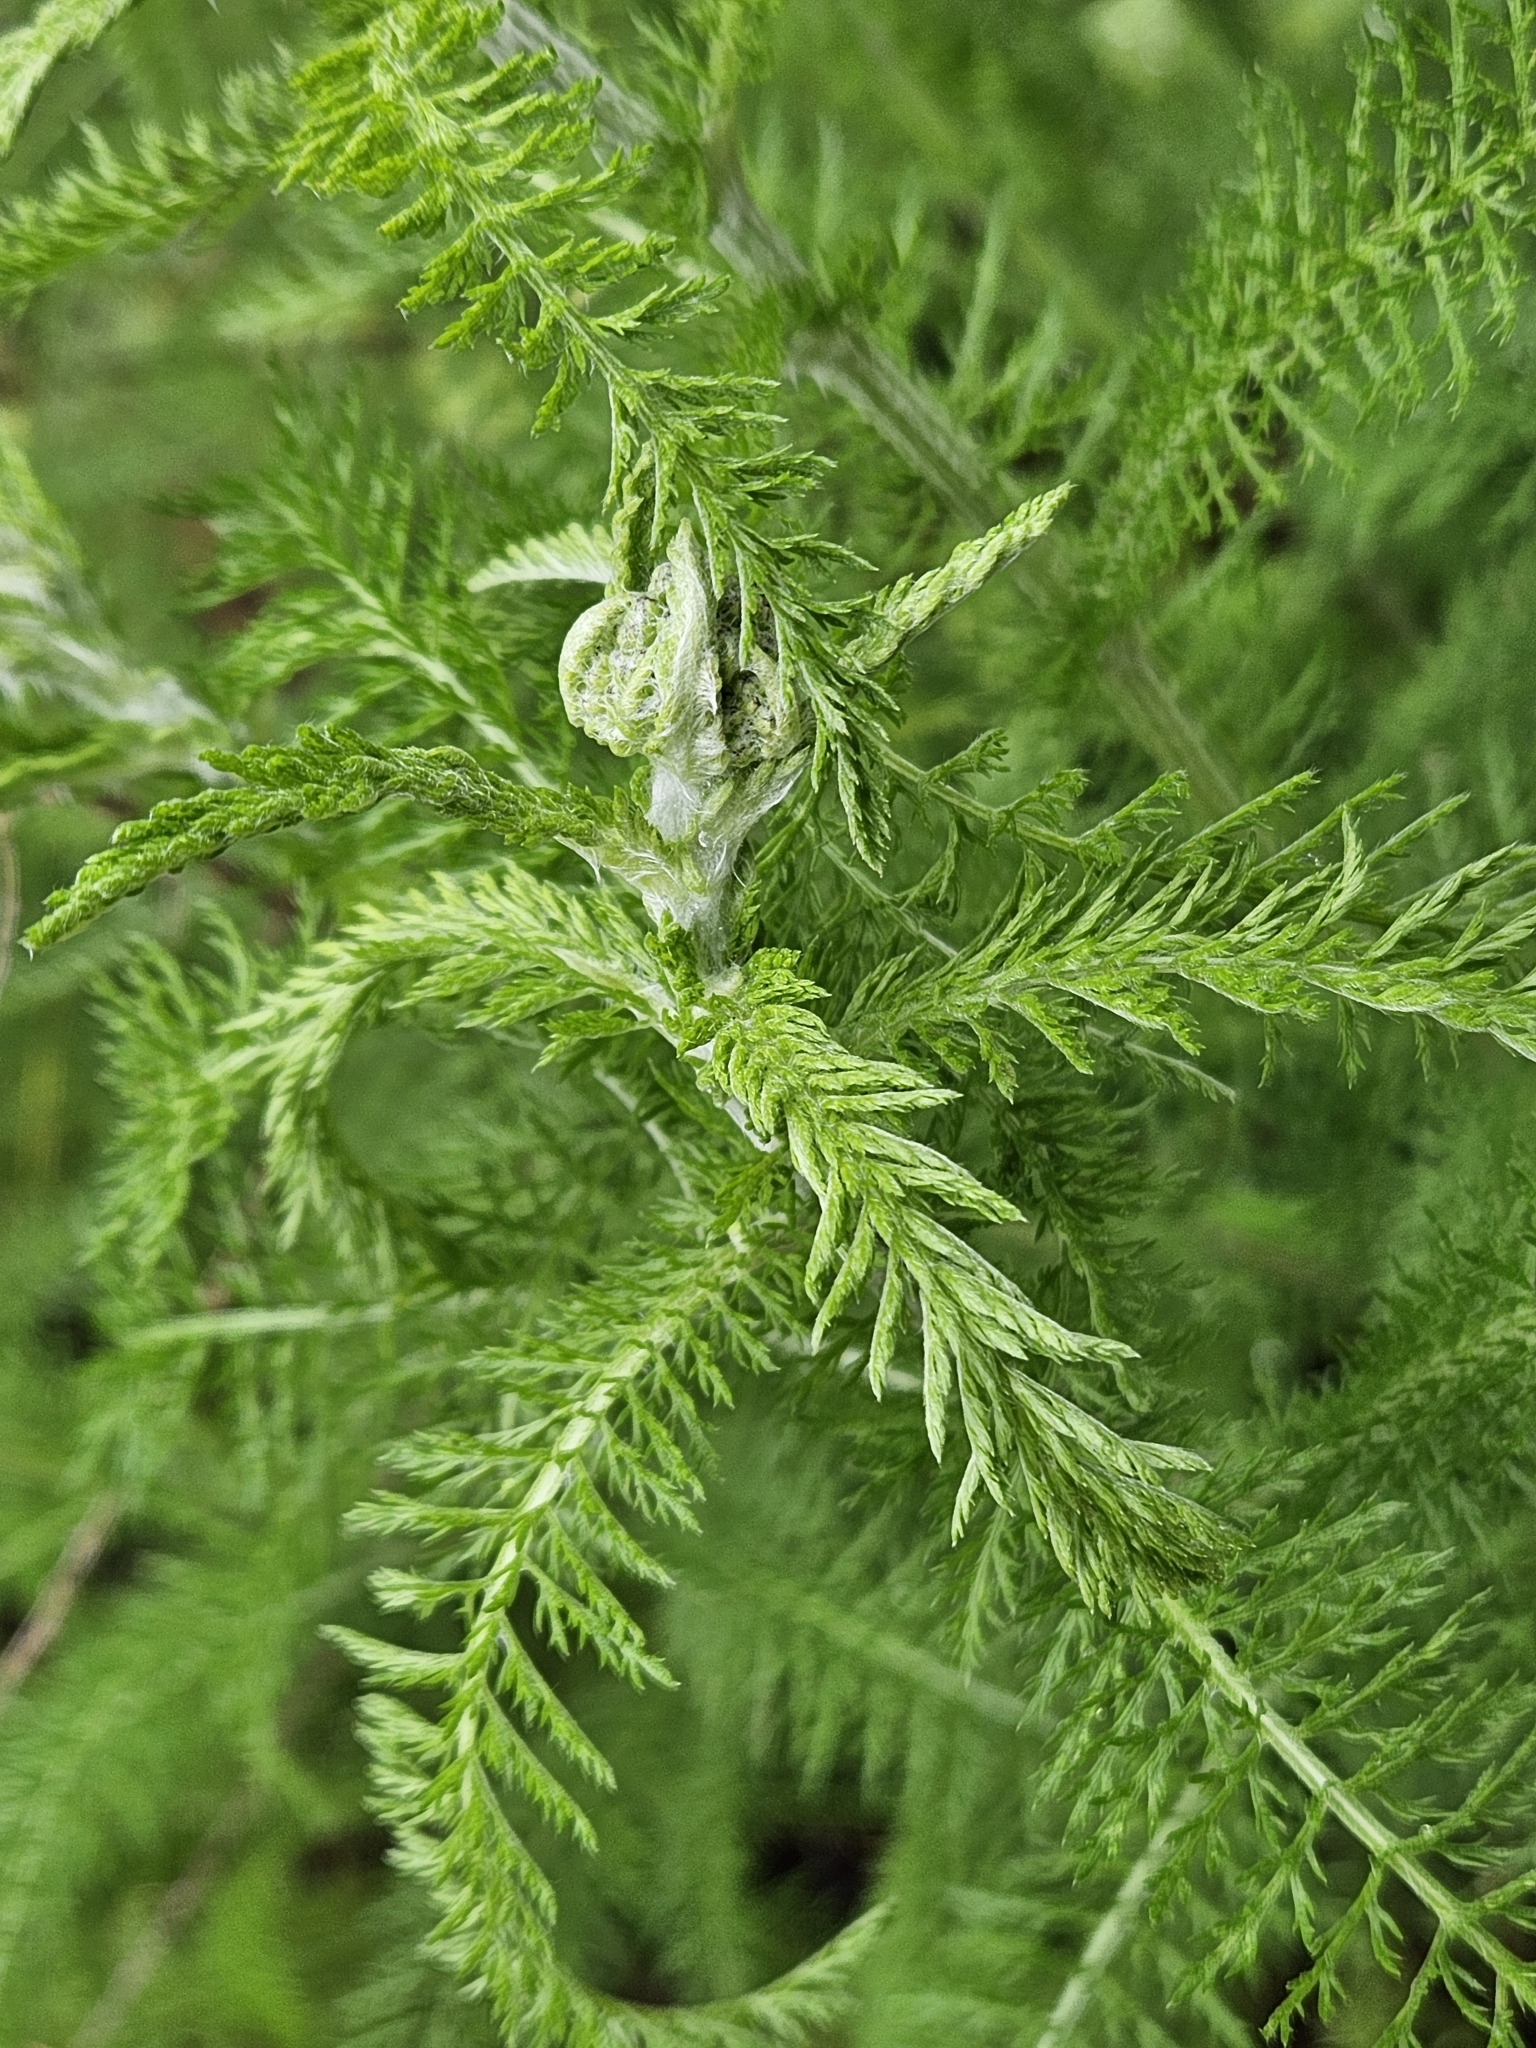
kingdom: Plantae
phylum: Tracheophyta
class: Magnoliopsida
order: Asterales
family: Asteraceae
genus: Achillea
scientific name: Achillea millefolium
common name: Yarrow
